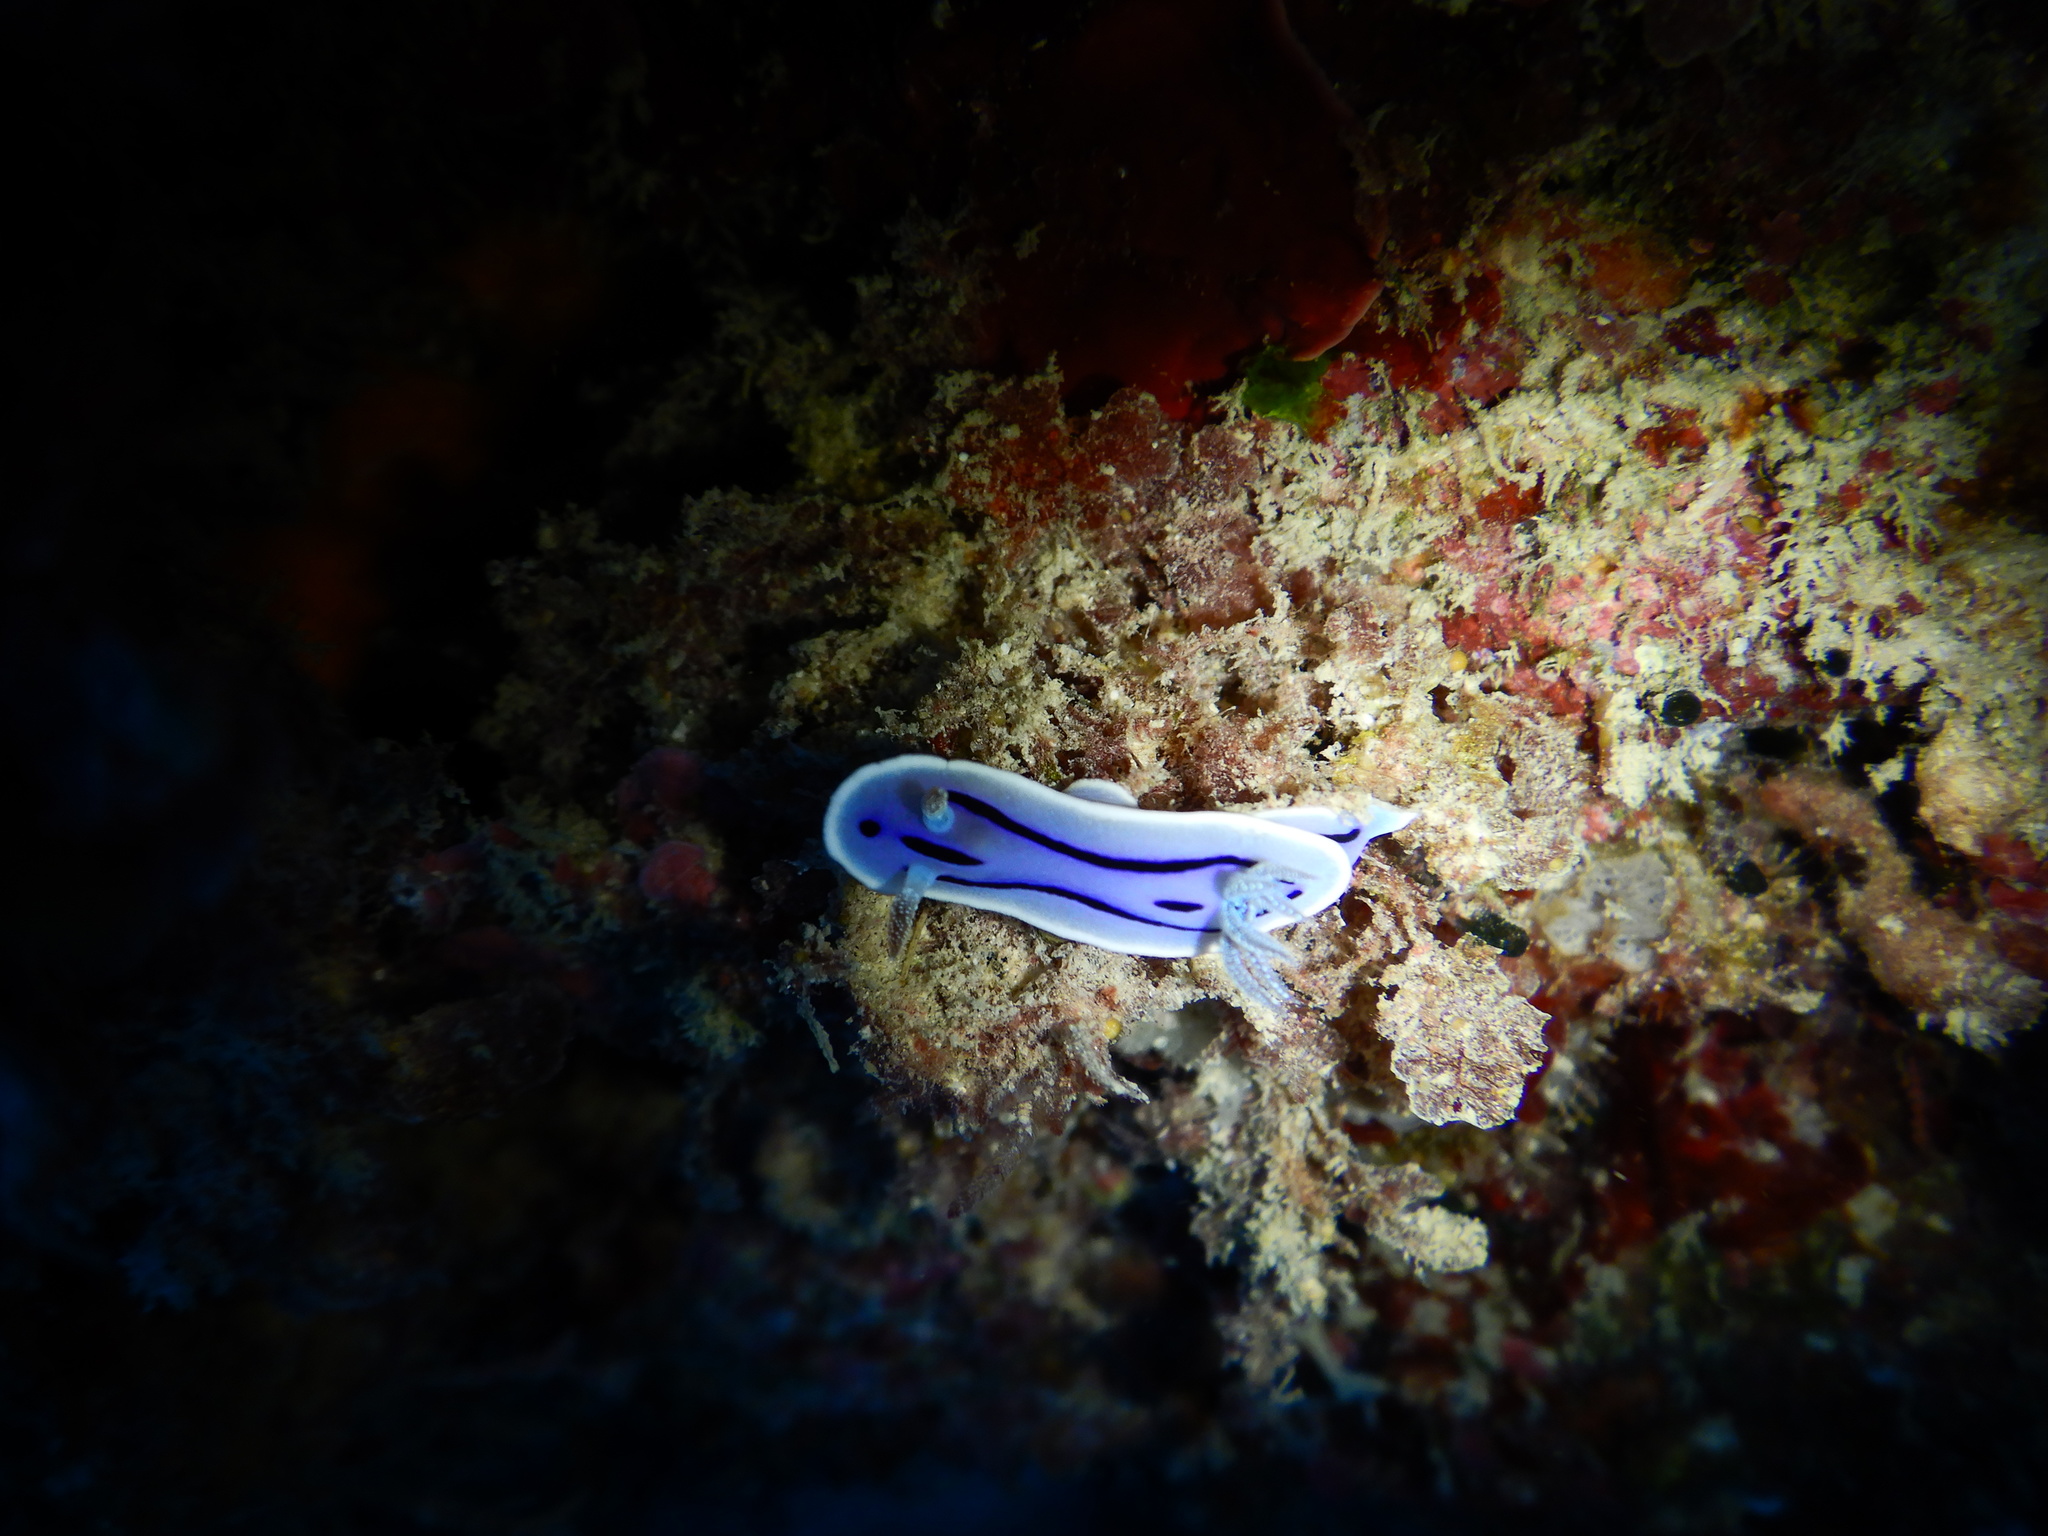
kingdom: Animalia
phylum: Mollusca
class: Gastropoda
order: Nudibranchia
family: Chromodorididae
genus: Chromodoris
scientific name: Chromodoris willani
